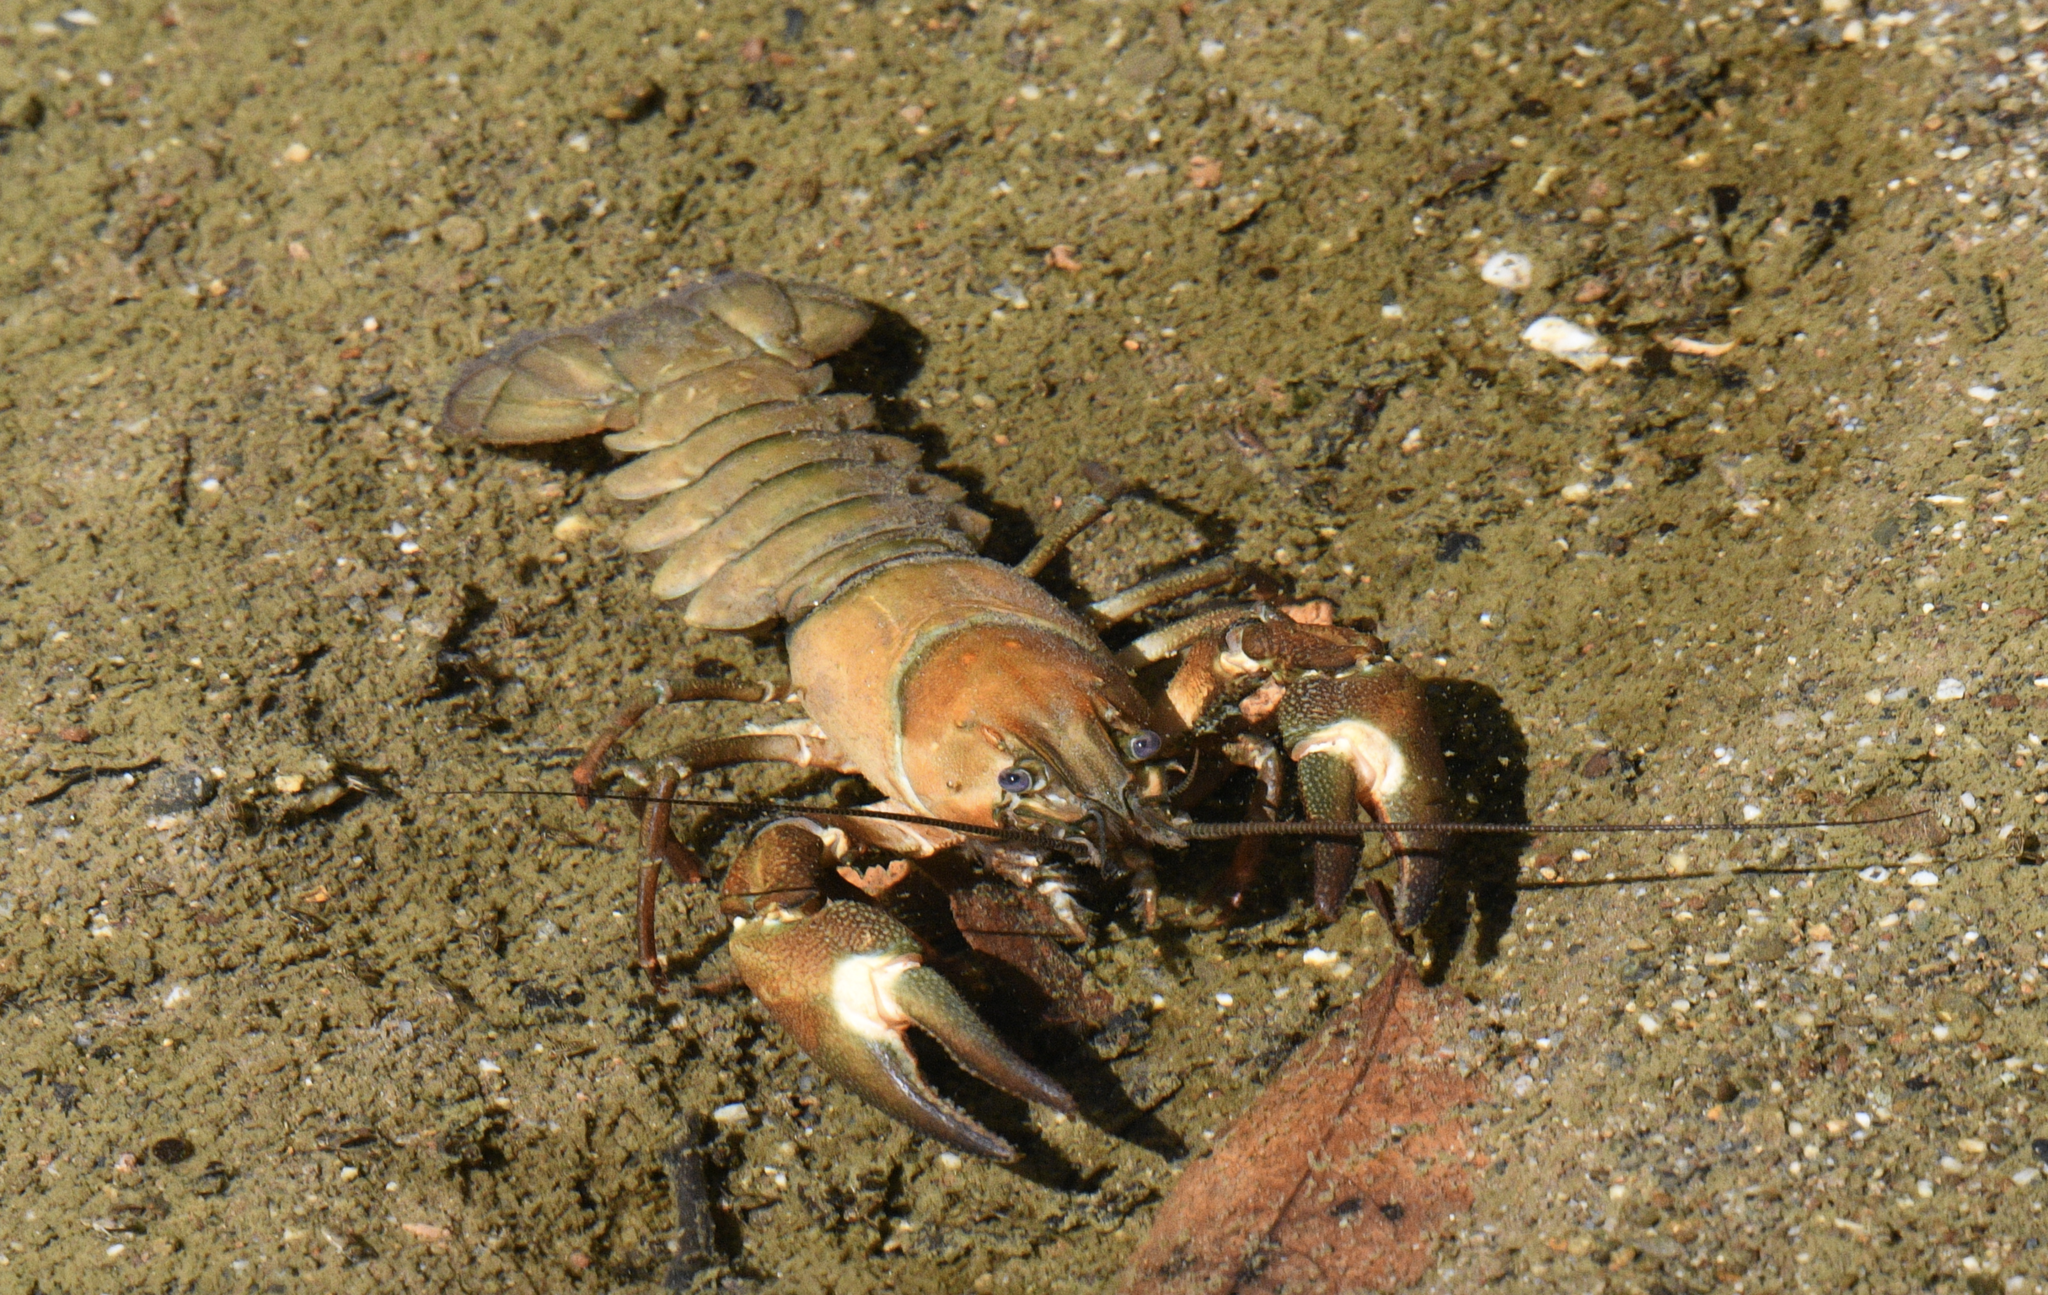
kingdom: Animalia
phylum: Arthropoda
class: Malacostraca
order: Decapoda
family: Astacidae
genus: Pacifastacus
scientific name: Pacifastacus leniusculus
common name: Signal crayfish
